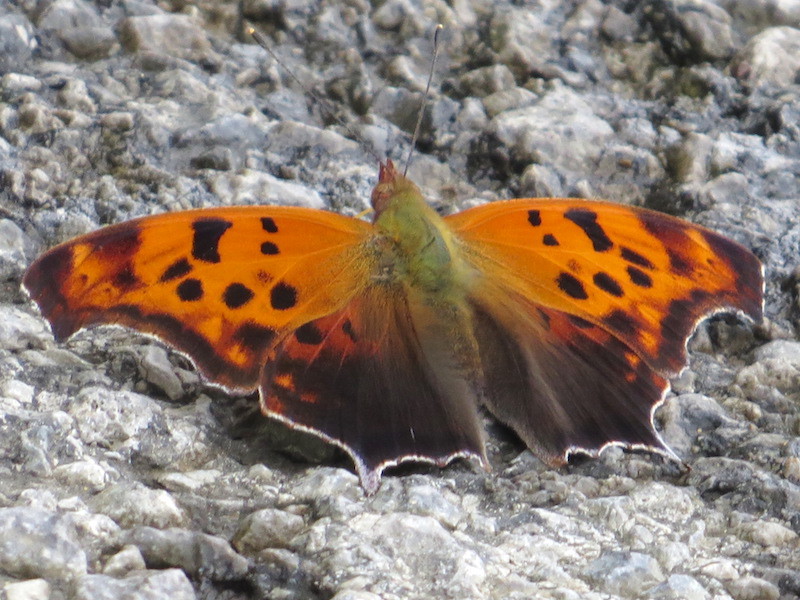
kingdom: Animalia
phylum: Arthropoda
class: Insecta
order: Lepidoptera
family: Nymphalidae
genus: Polygonia
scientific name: Polygonia interrogationis
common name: Question mark
